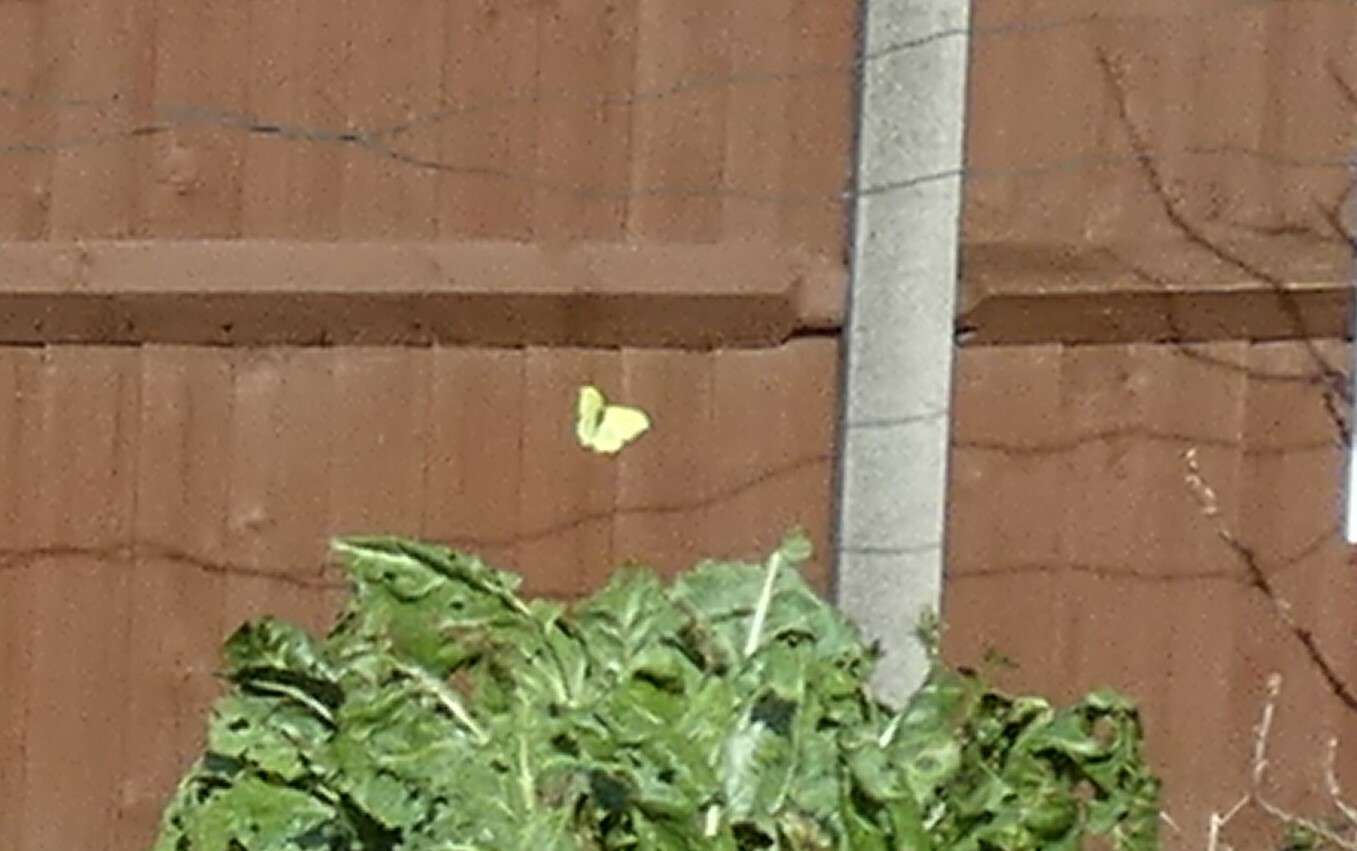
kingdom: Animalia
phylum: Arthropoda
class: Insecta
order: Lepidoptera
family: Pieridae
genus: Gonepteryx
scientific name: Gonepteryx rhamni
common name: Brimstone
